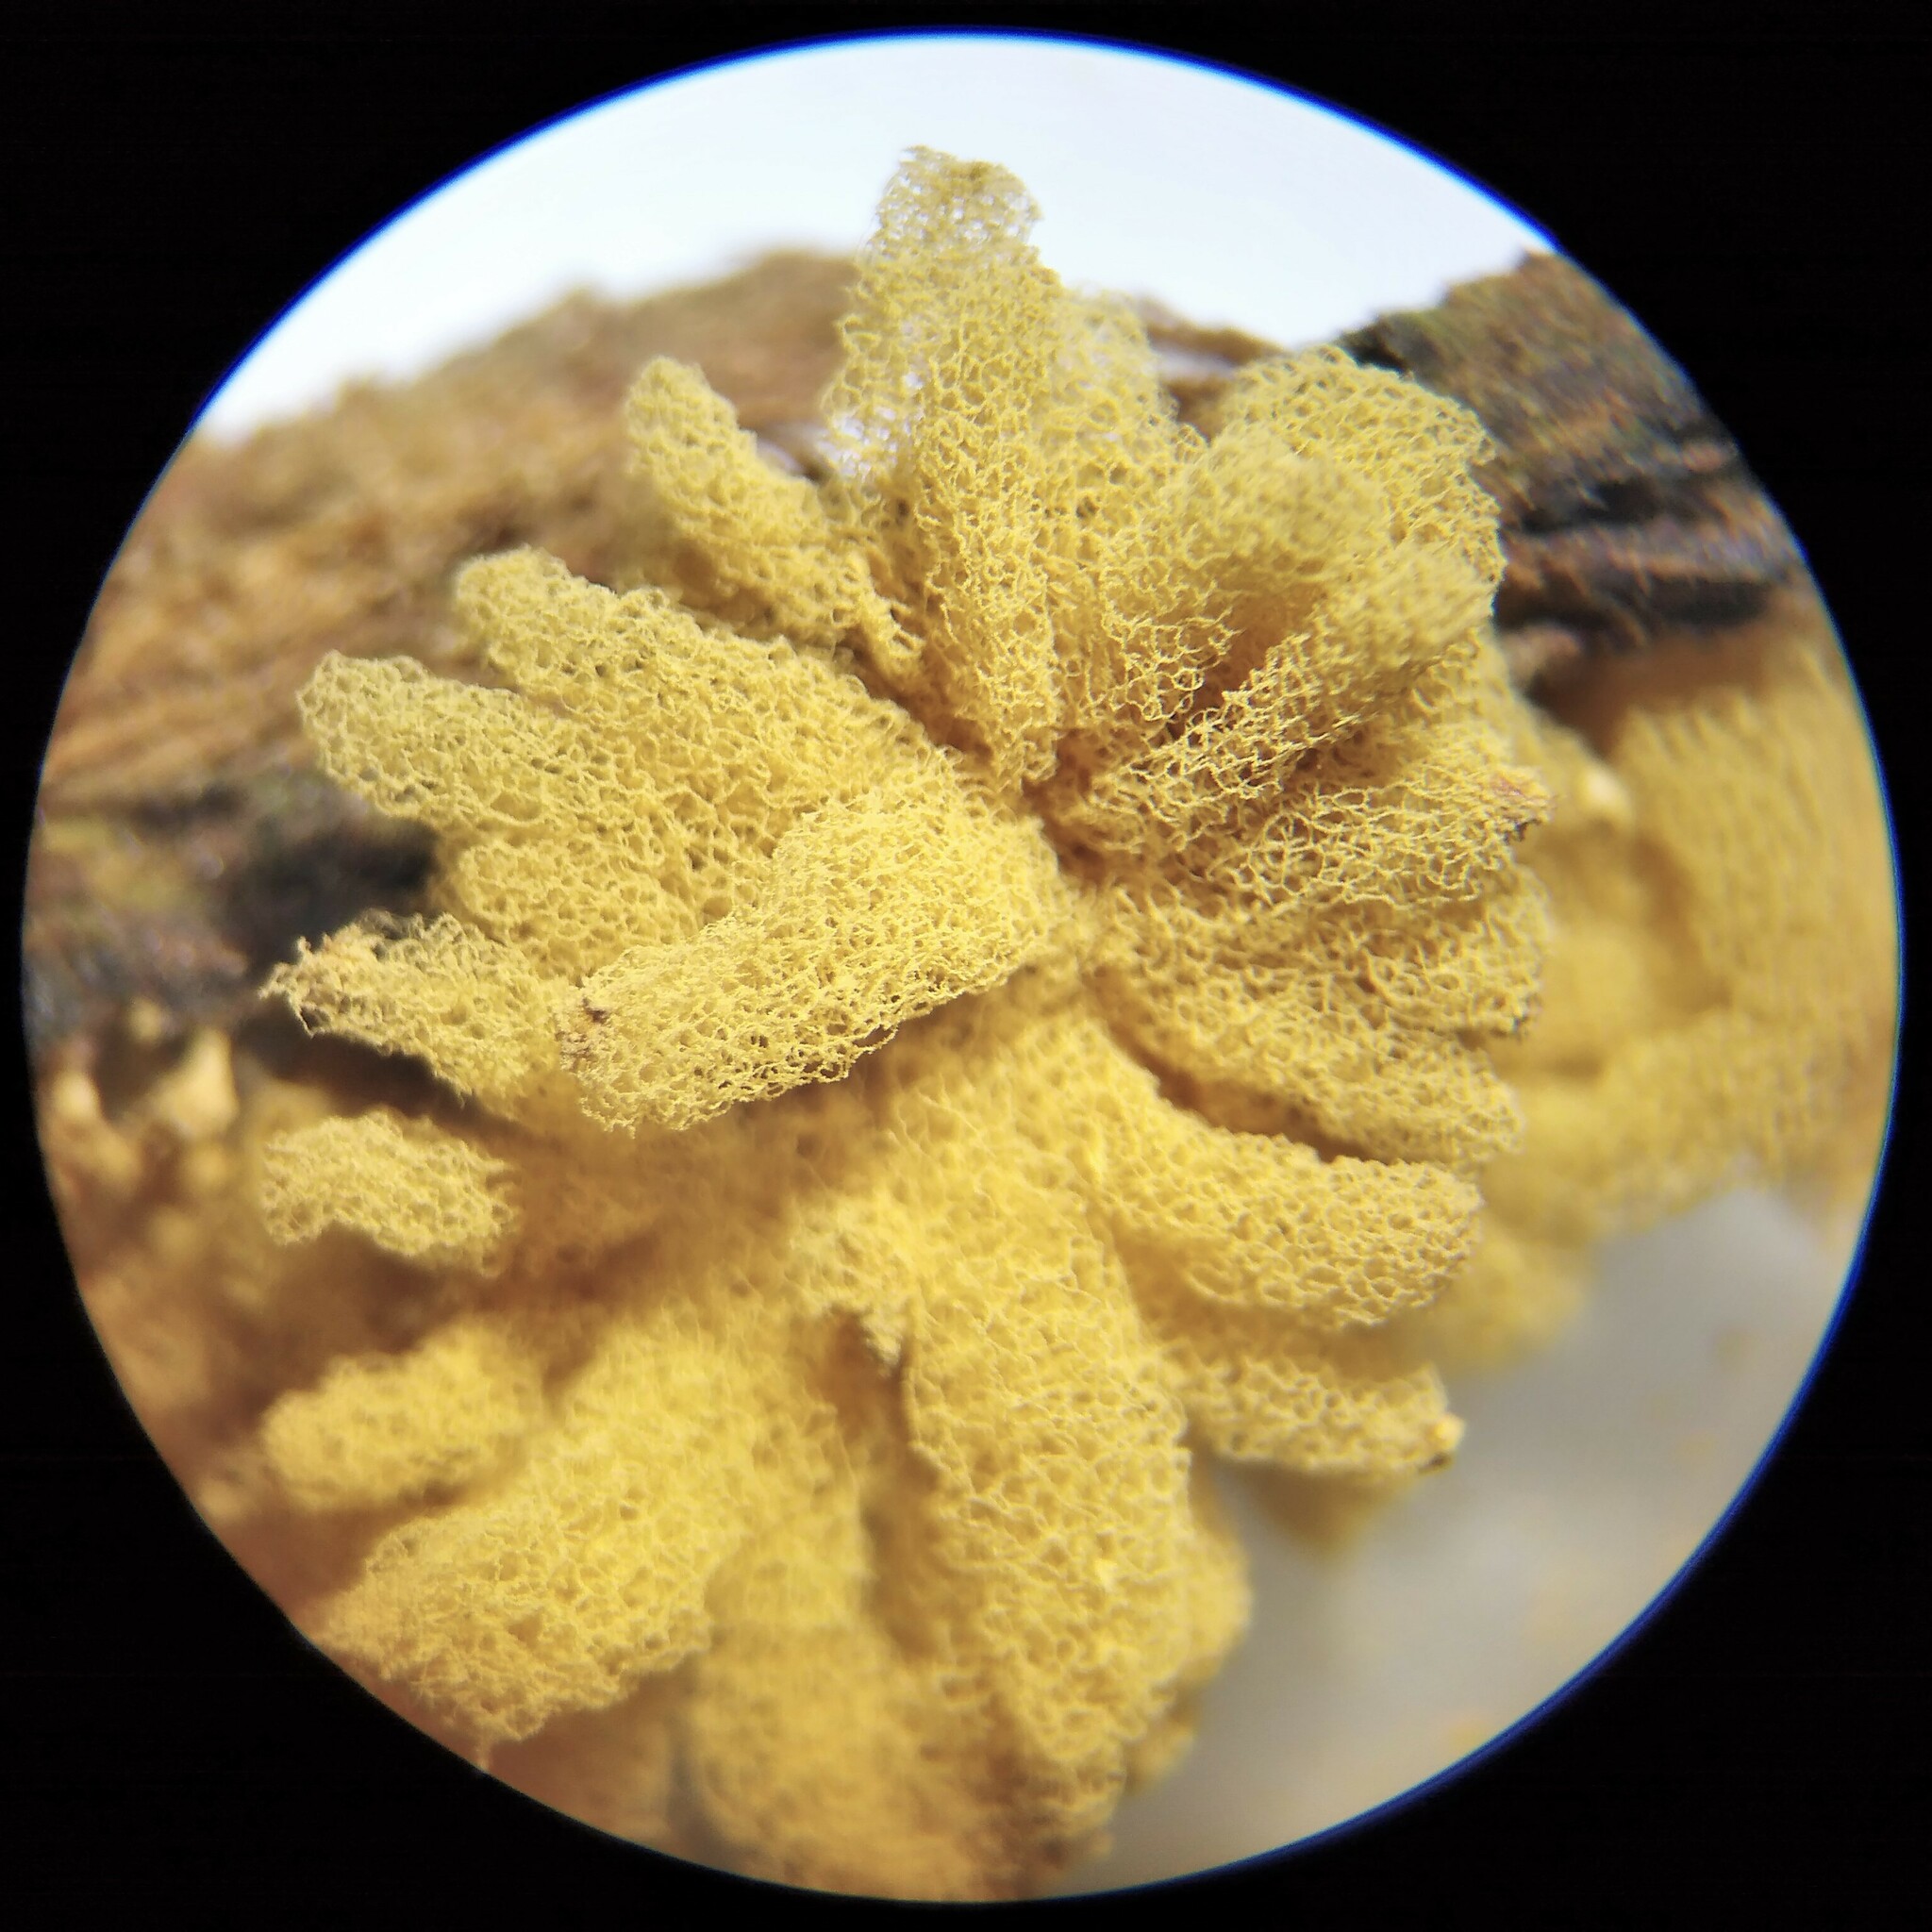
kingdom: Protozoa
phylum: Mycetozoa
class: Myxomycetes
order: Trichiales
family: Arcyriaceae
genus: Arcyria
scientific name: Arcyria obvelata
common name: Yellow carnival candy slime
